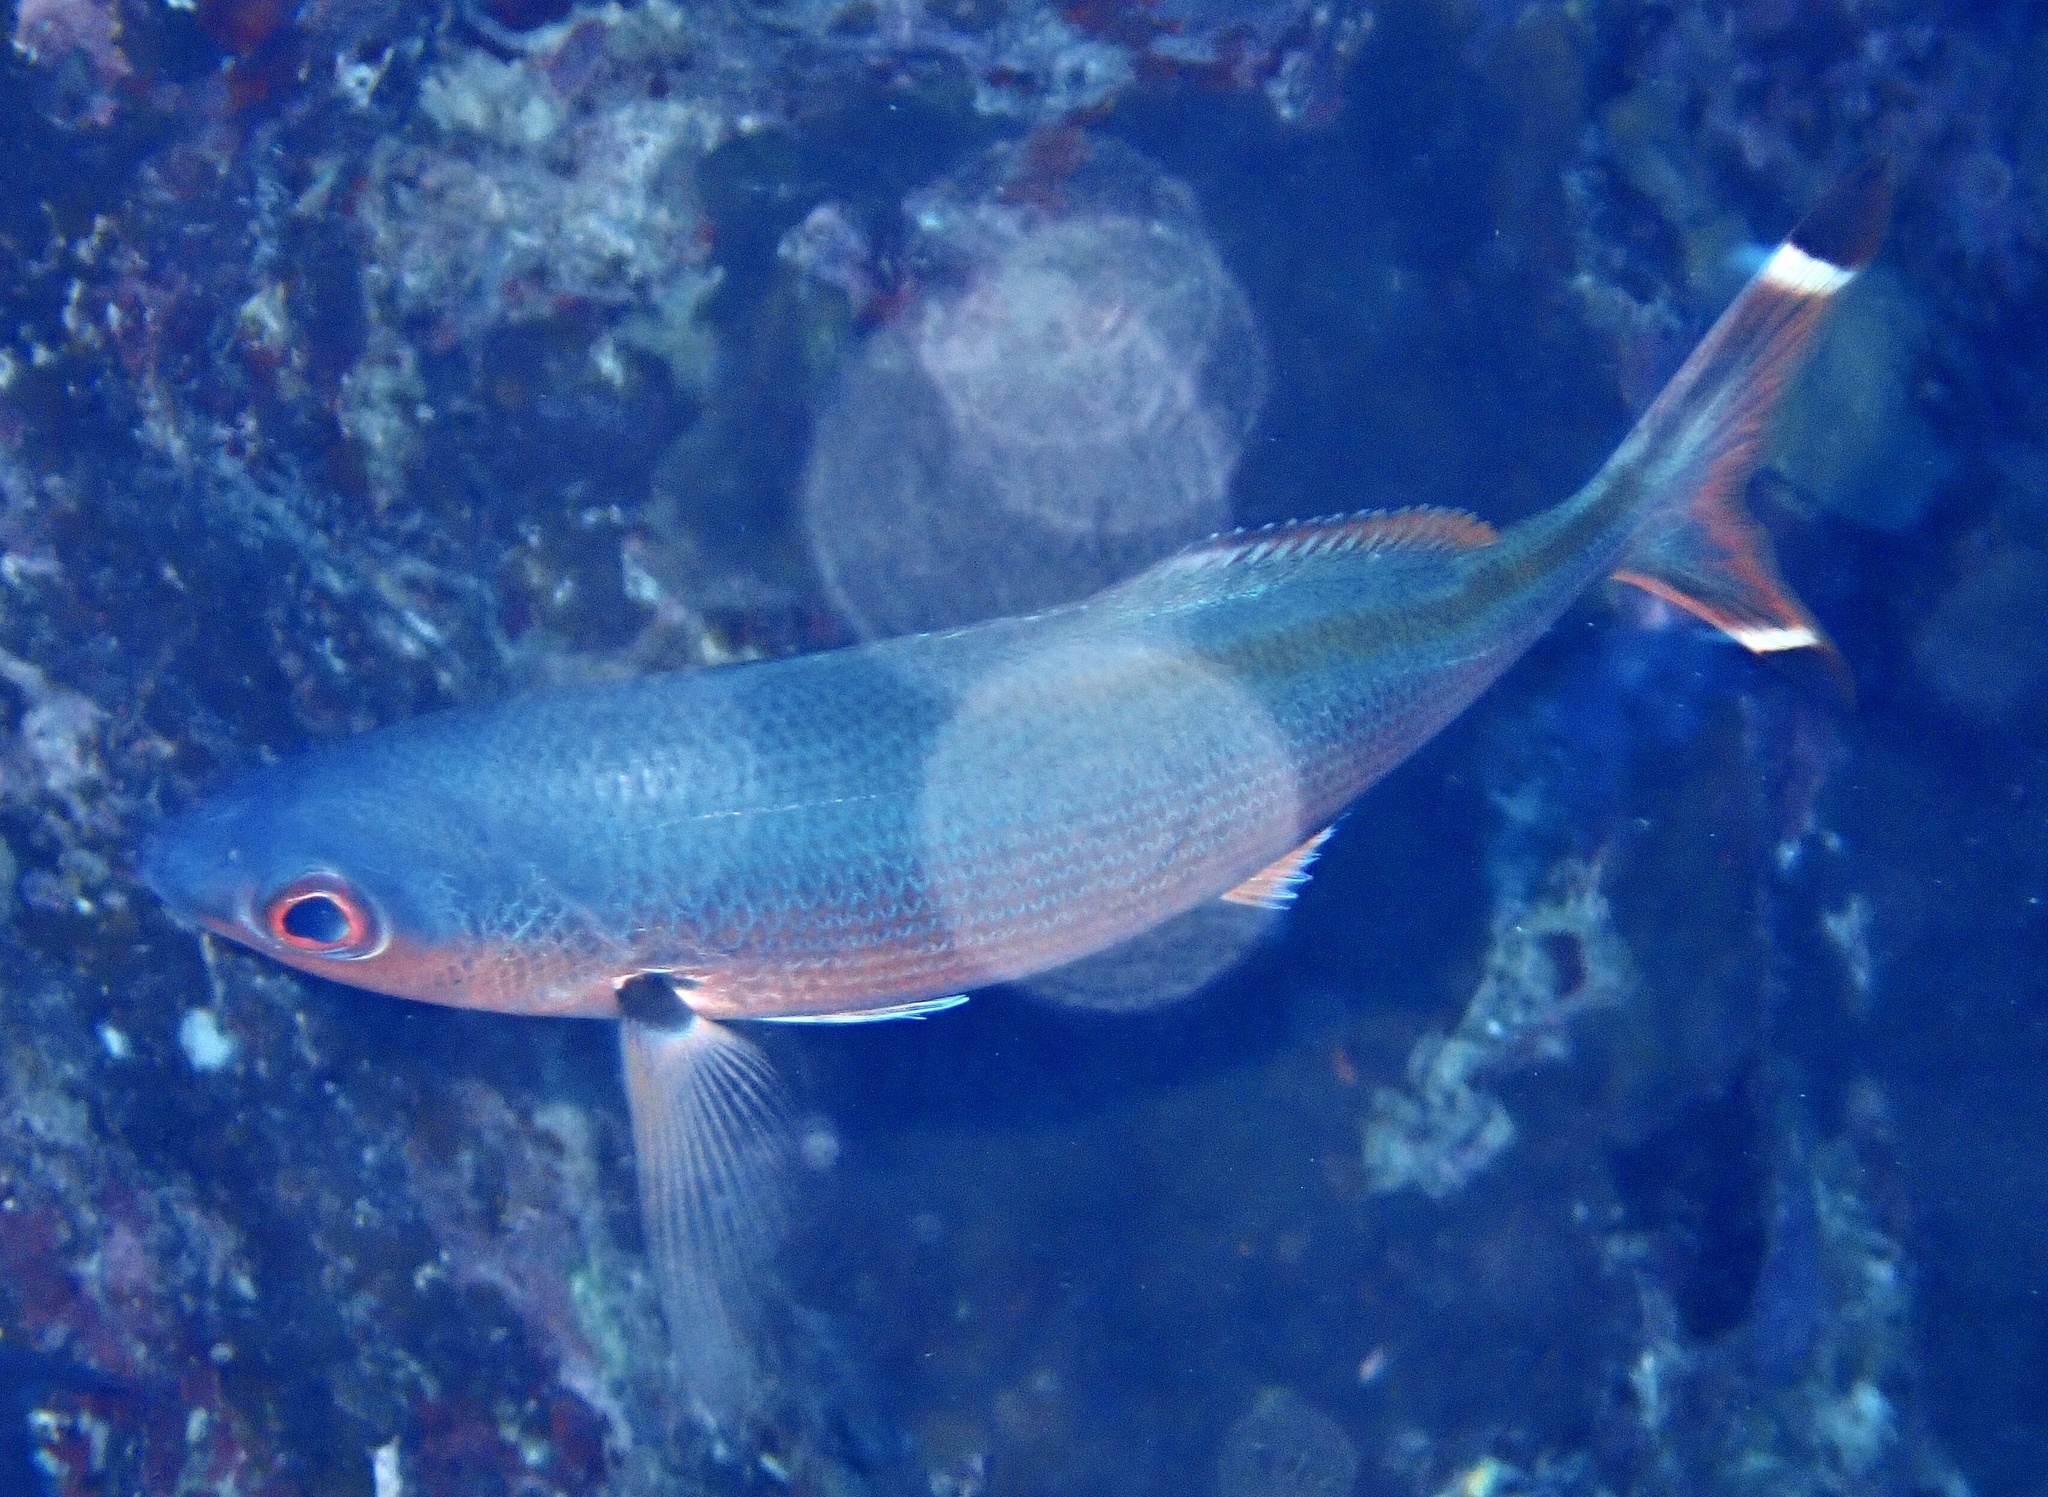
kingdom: Animalia
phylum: Chordata
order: Perciformes
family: Caesionidae
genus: Caesio
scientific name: Caesio suevica
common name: Suez fusilier
